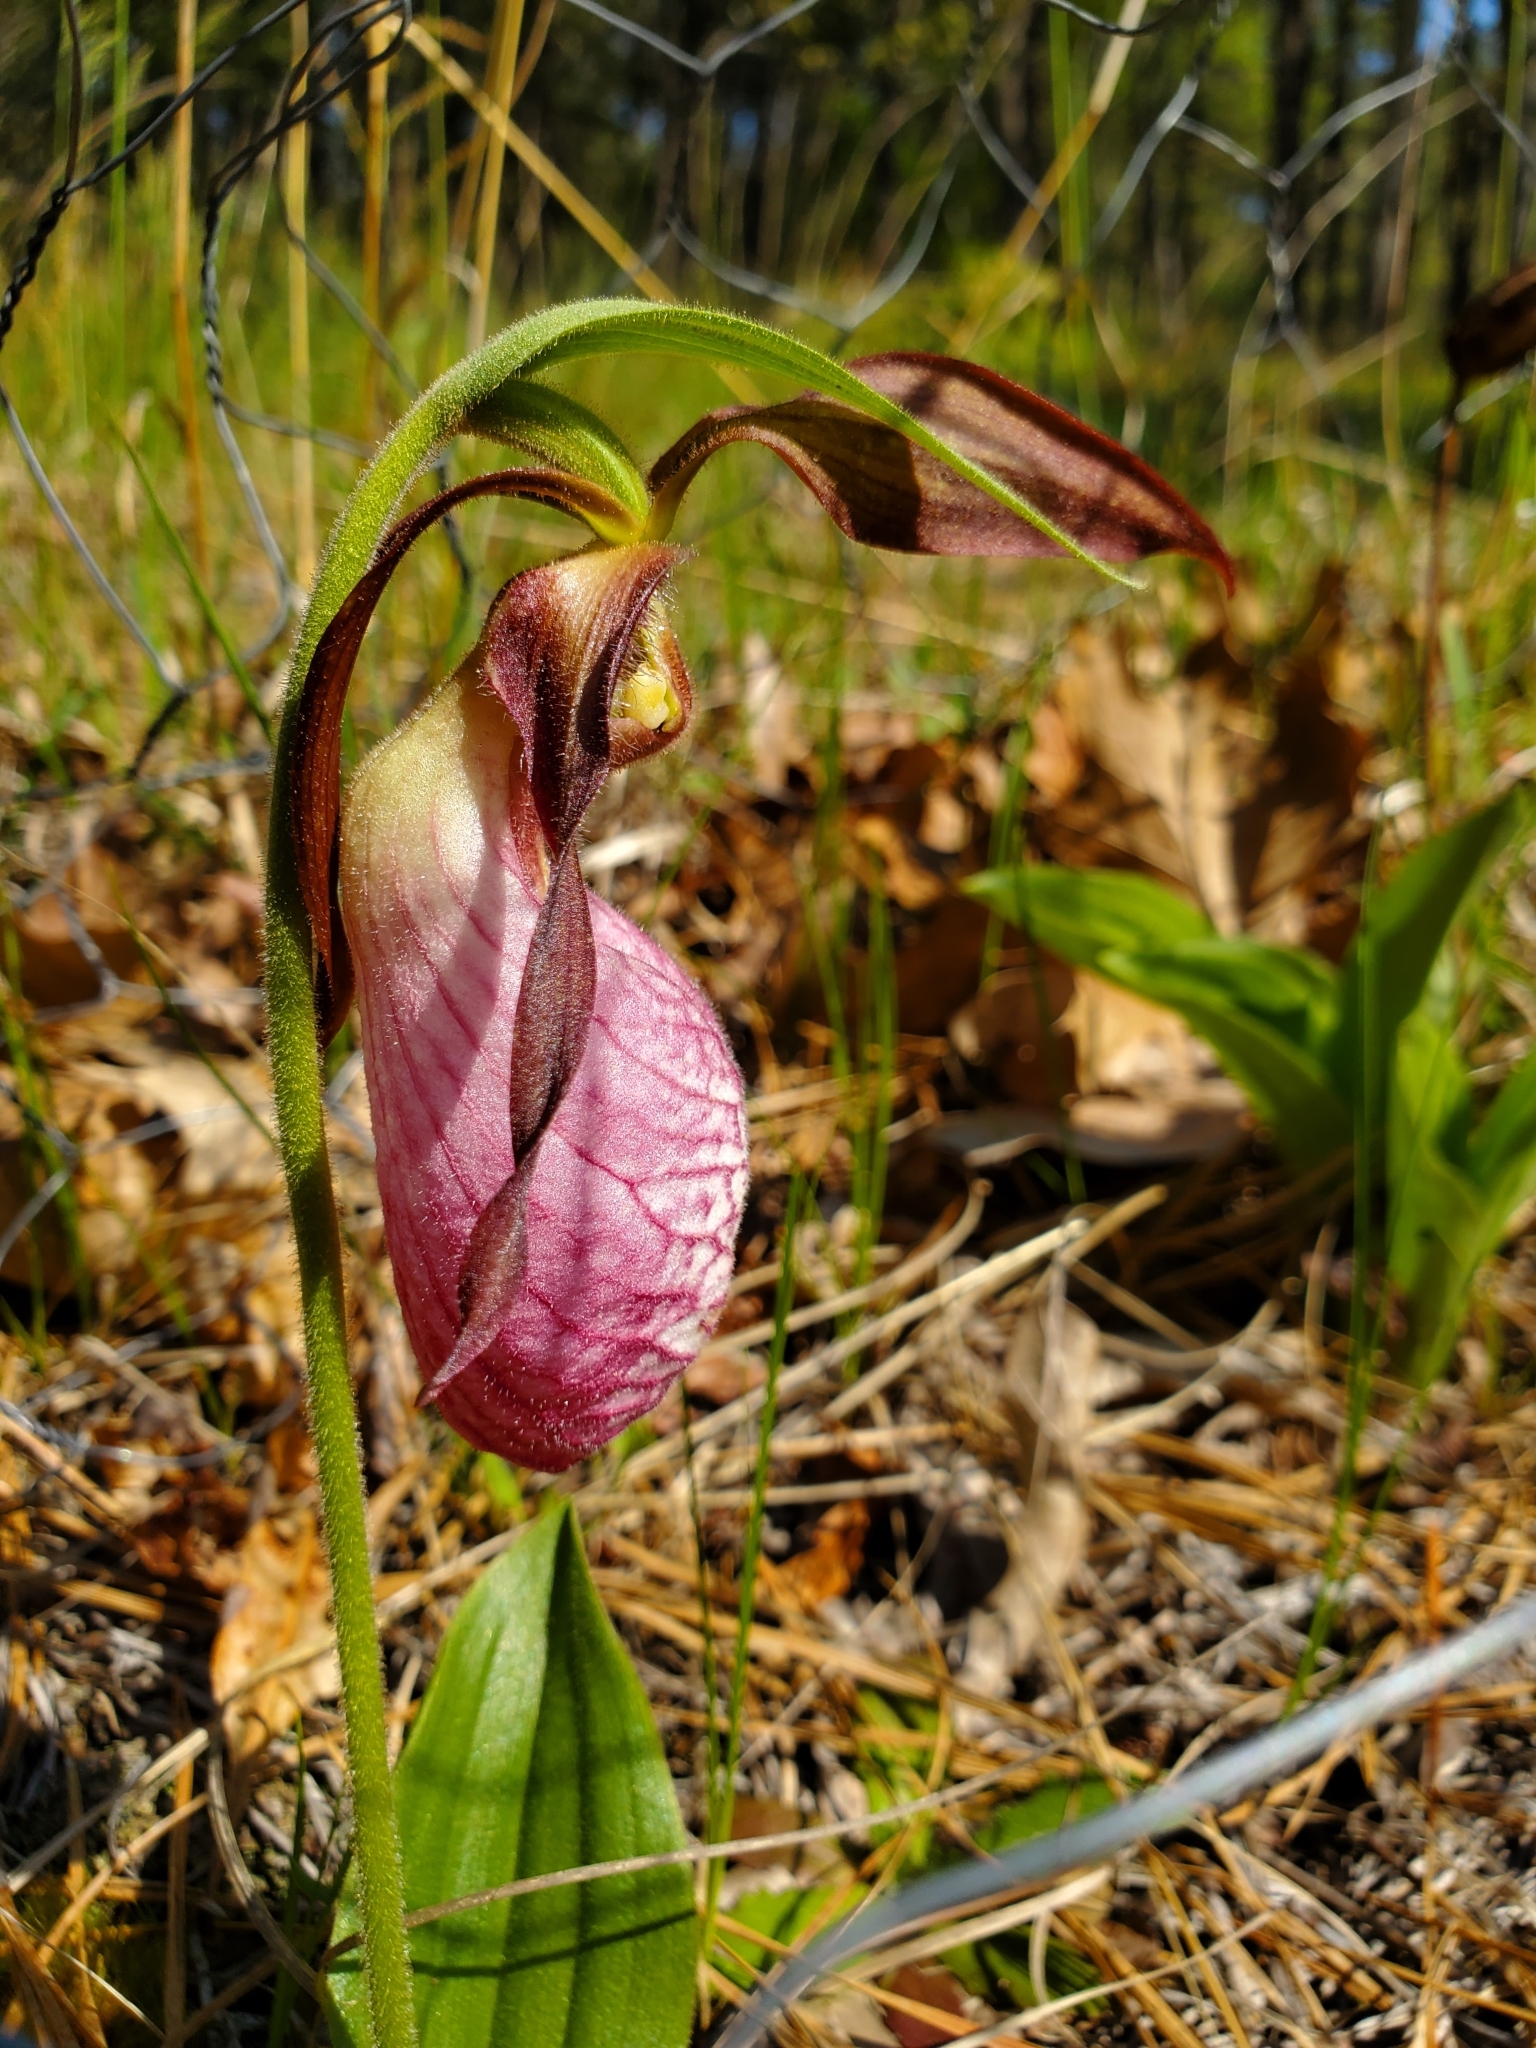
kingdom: Plantae
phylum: Tracheophyta
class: Liliopsida
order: Asparagales
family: Orchidaceae
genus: Cypripedium
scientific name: Cypripedium acaule
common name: Pink lady's-slipper
